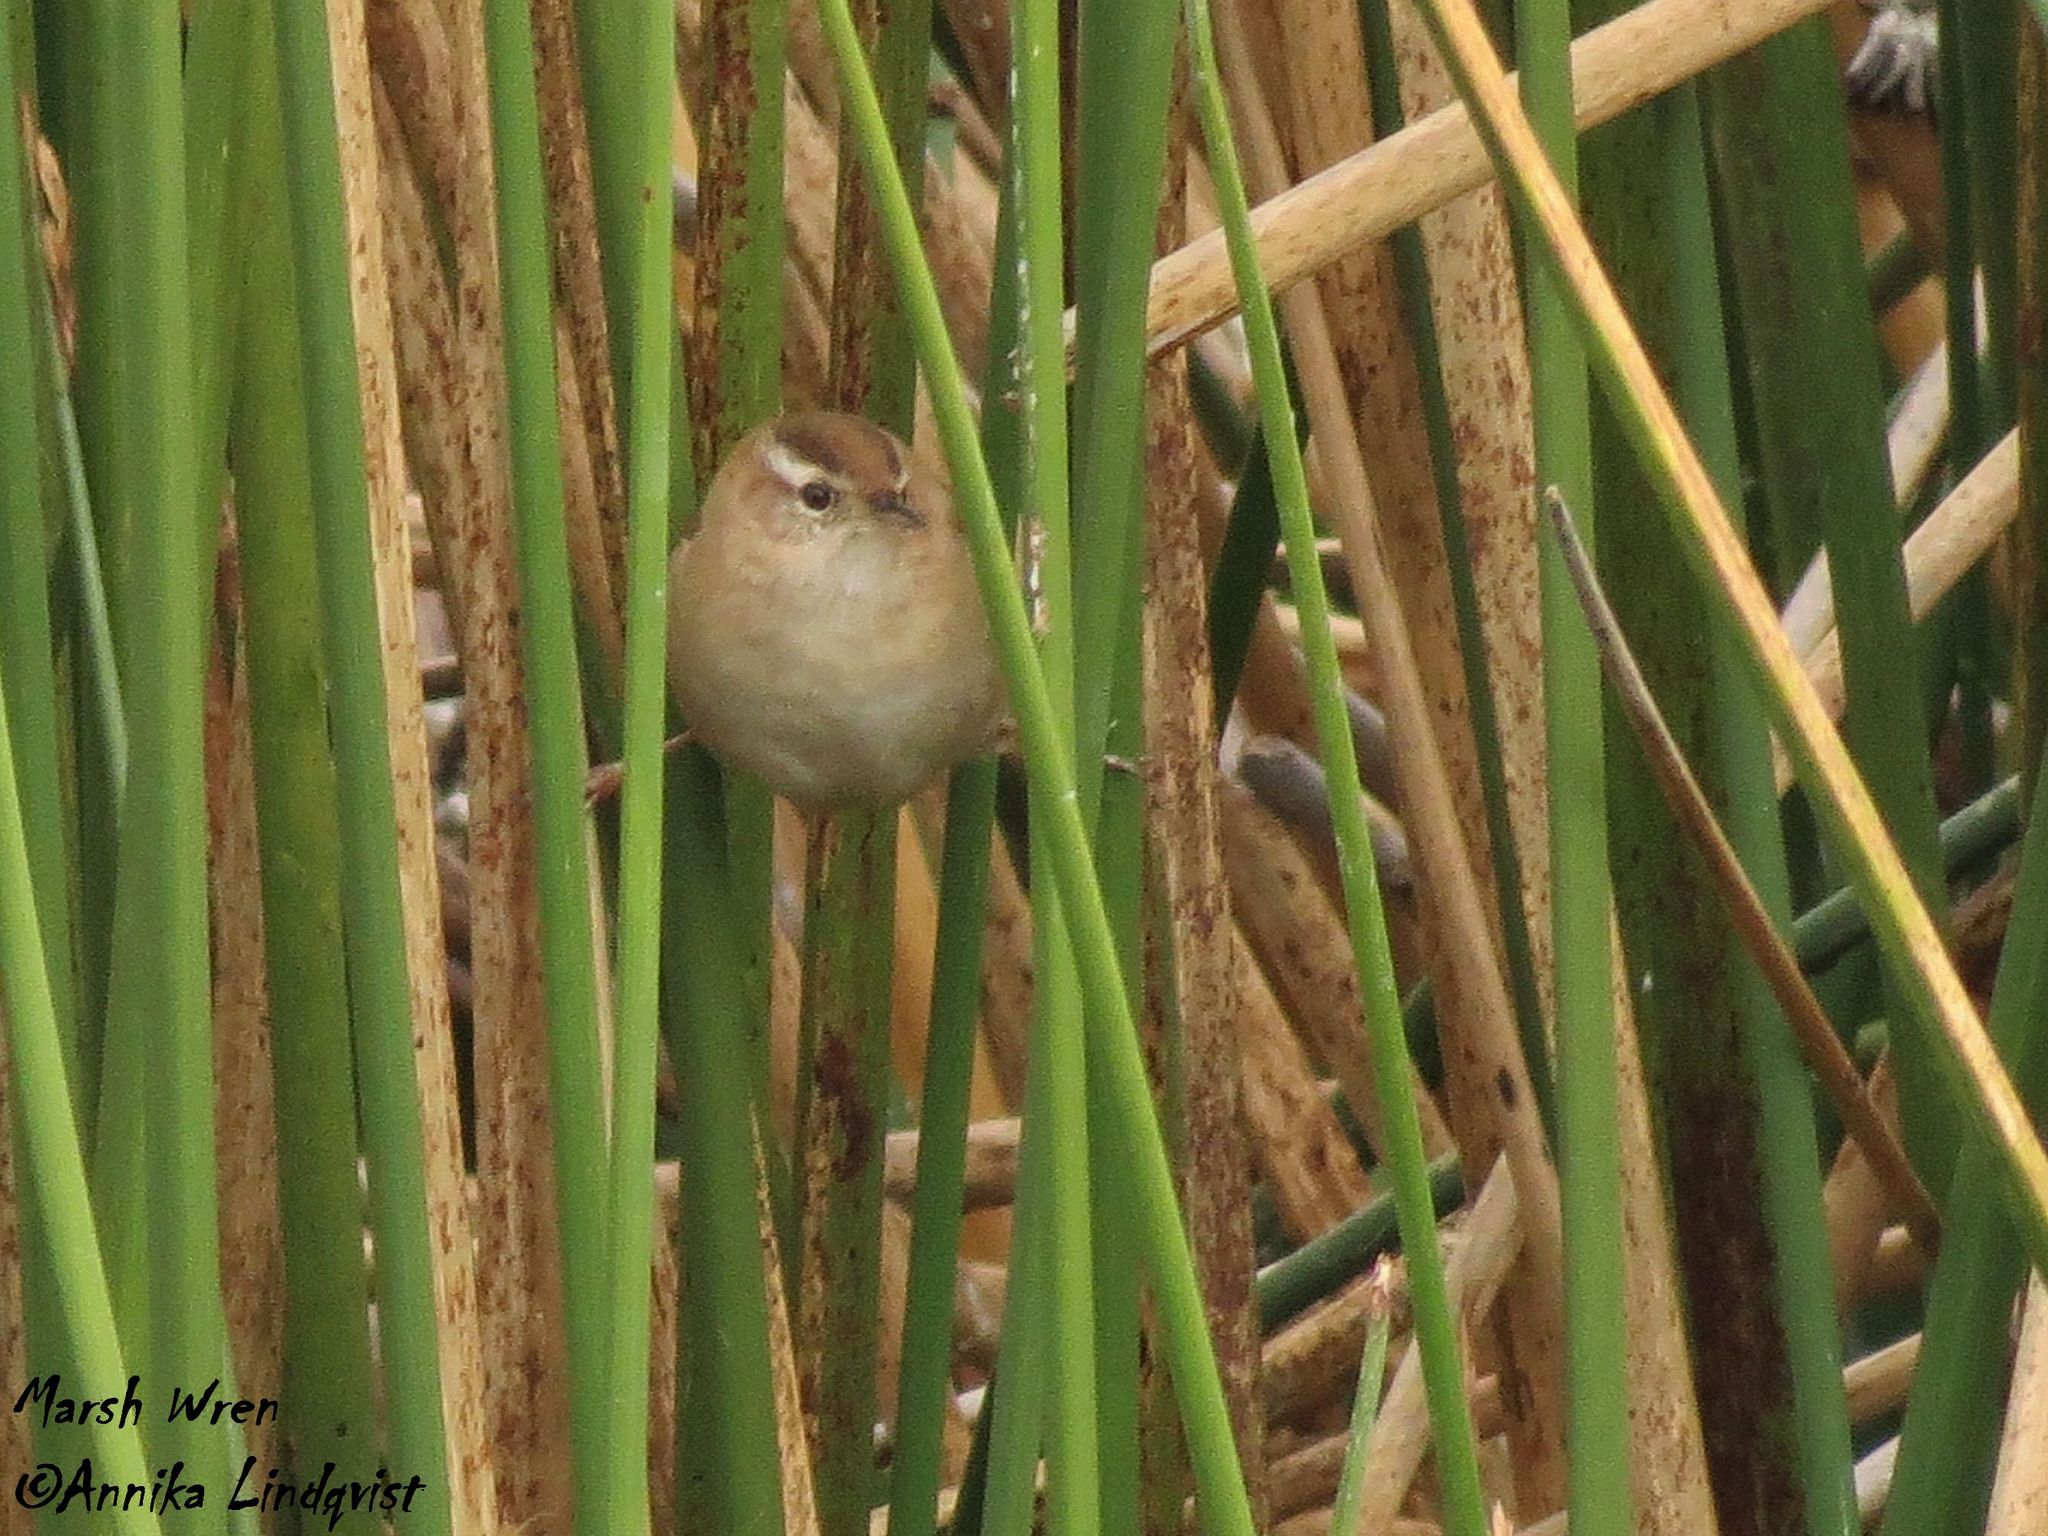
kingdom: Animalia
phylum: Chordata
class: Aves
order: Passeriformes
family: Troglodytidae
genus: Cistothorus
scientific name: Cistothorus palustris
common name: Marsh wren
